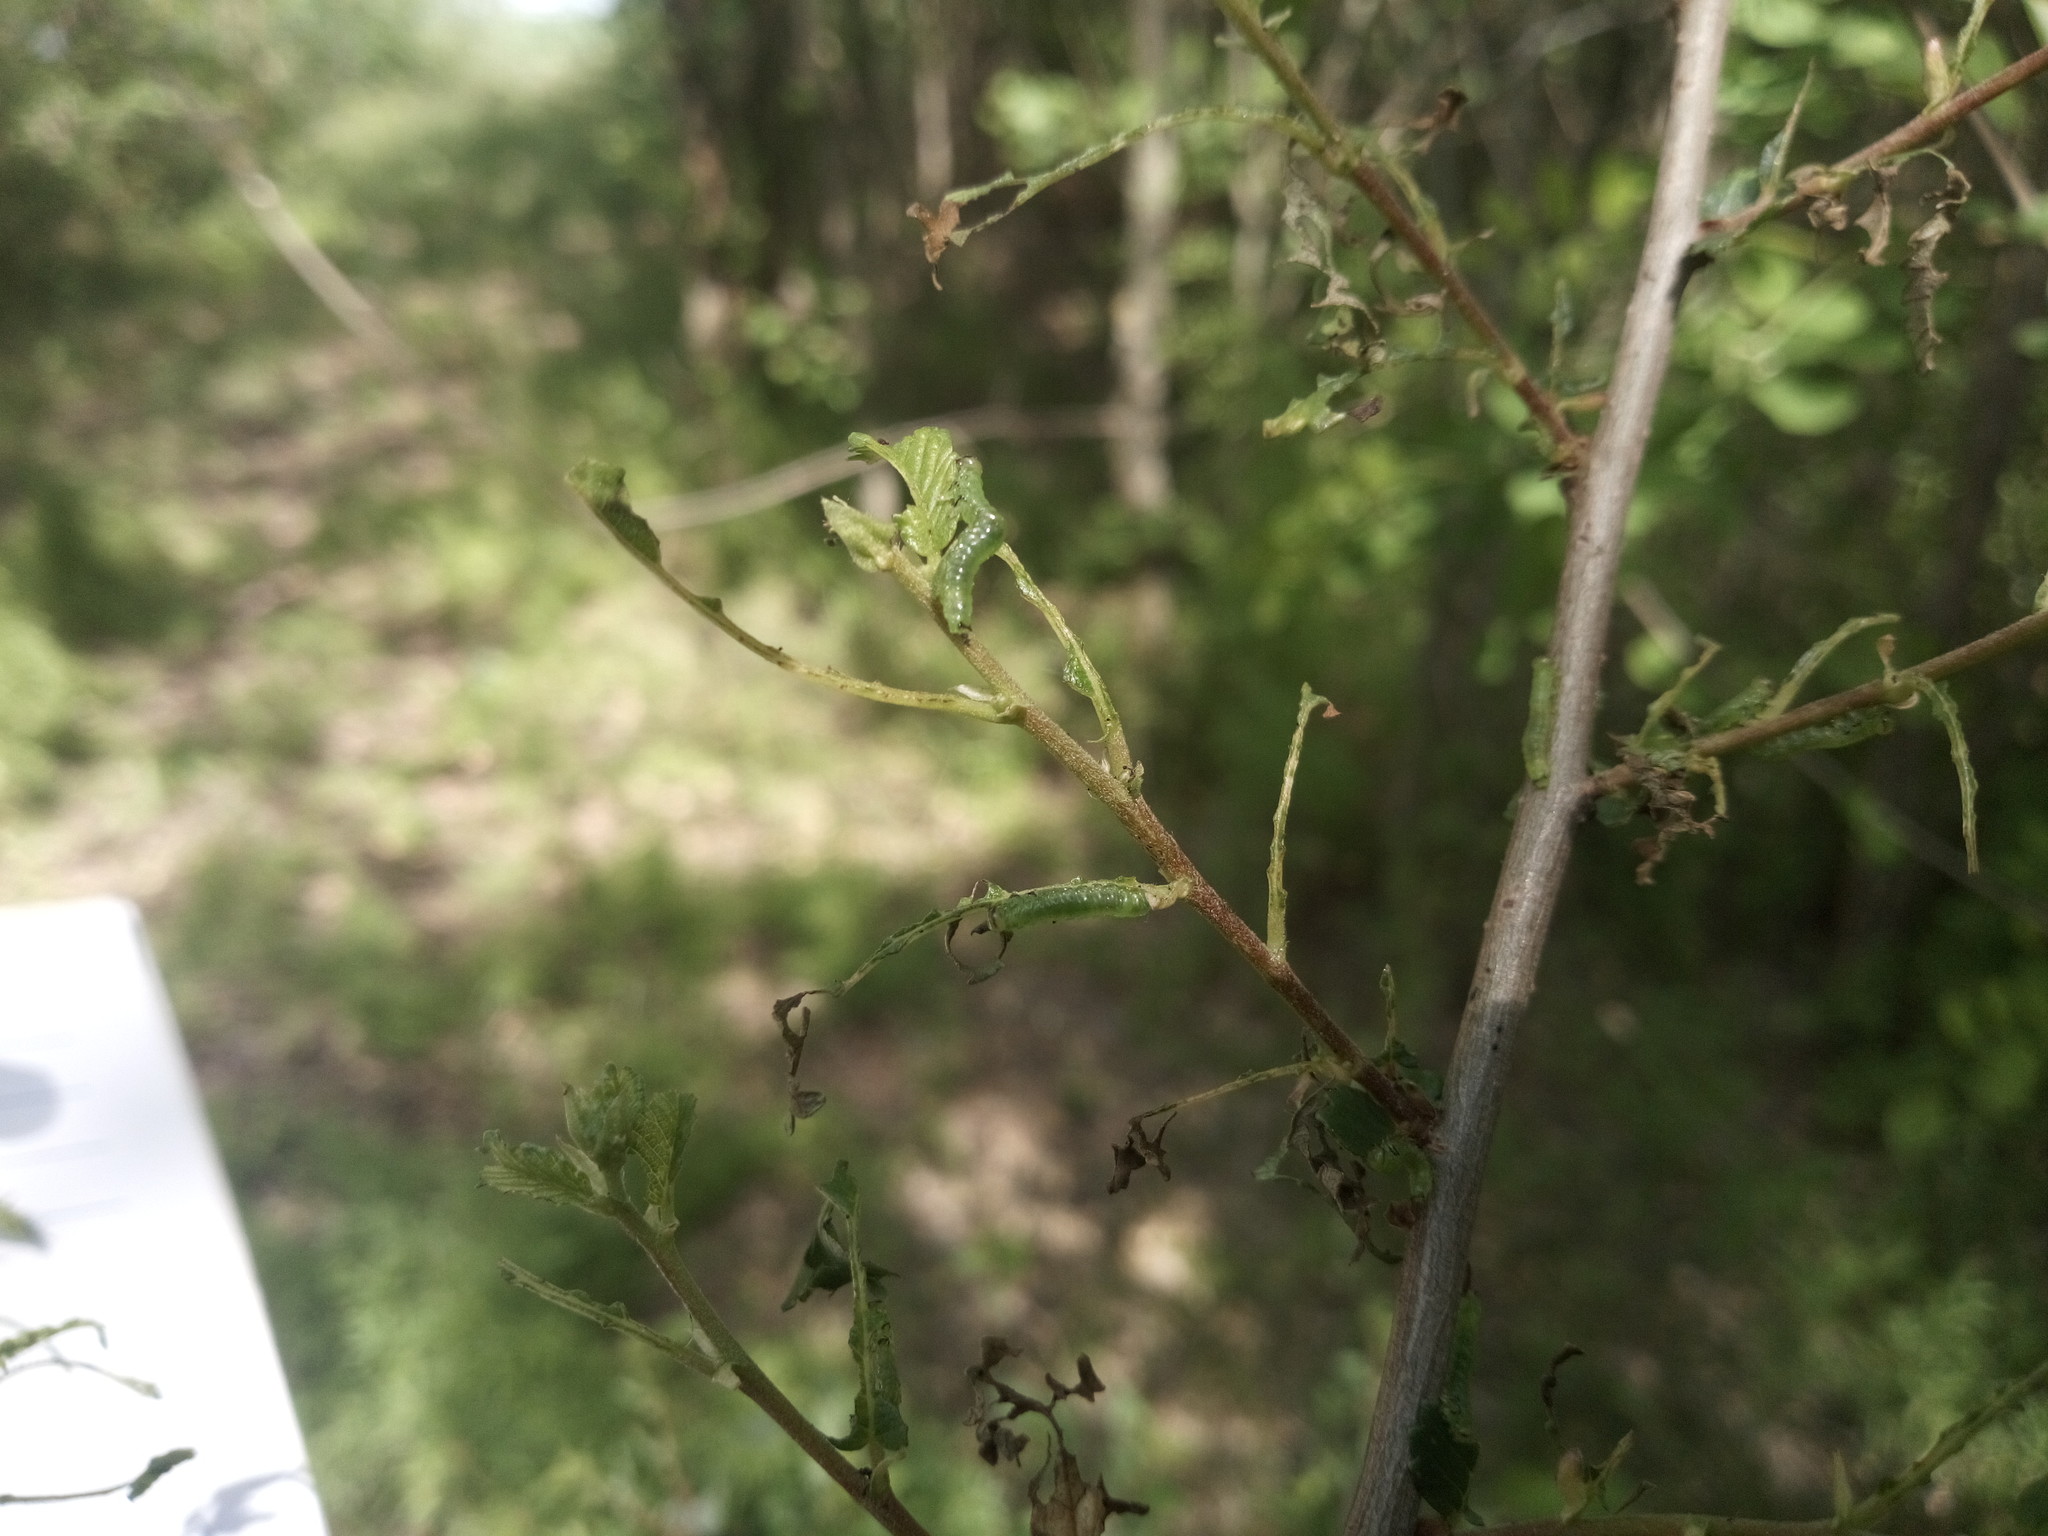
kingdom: Animalia
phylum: Arthropoda
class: Insecta
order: Hymenoptera
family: Argidae
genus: Aproceros
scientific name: Aproceros leucopoda
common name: Zig-zag elm sawfly
